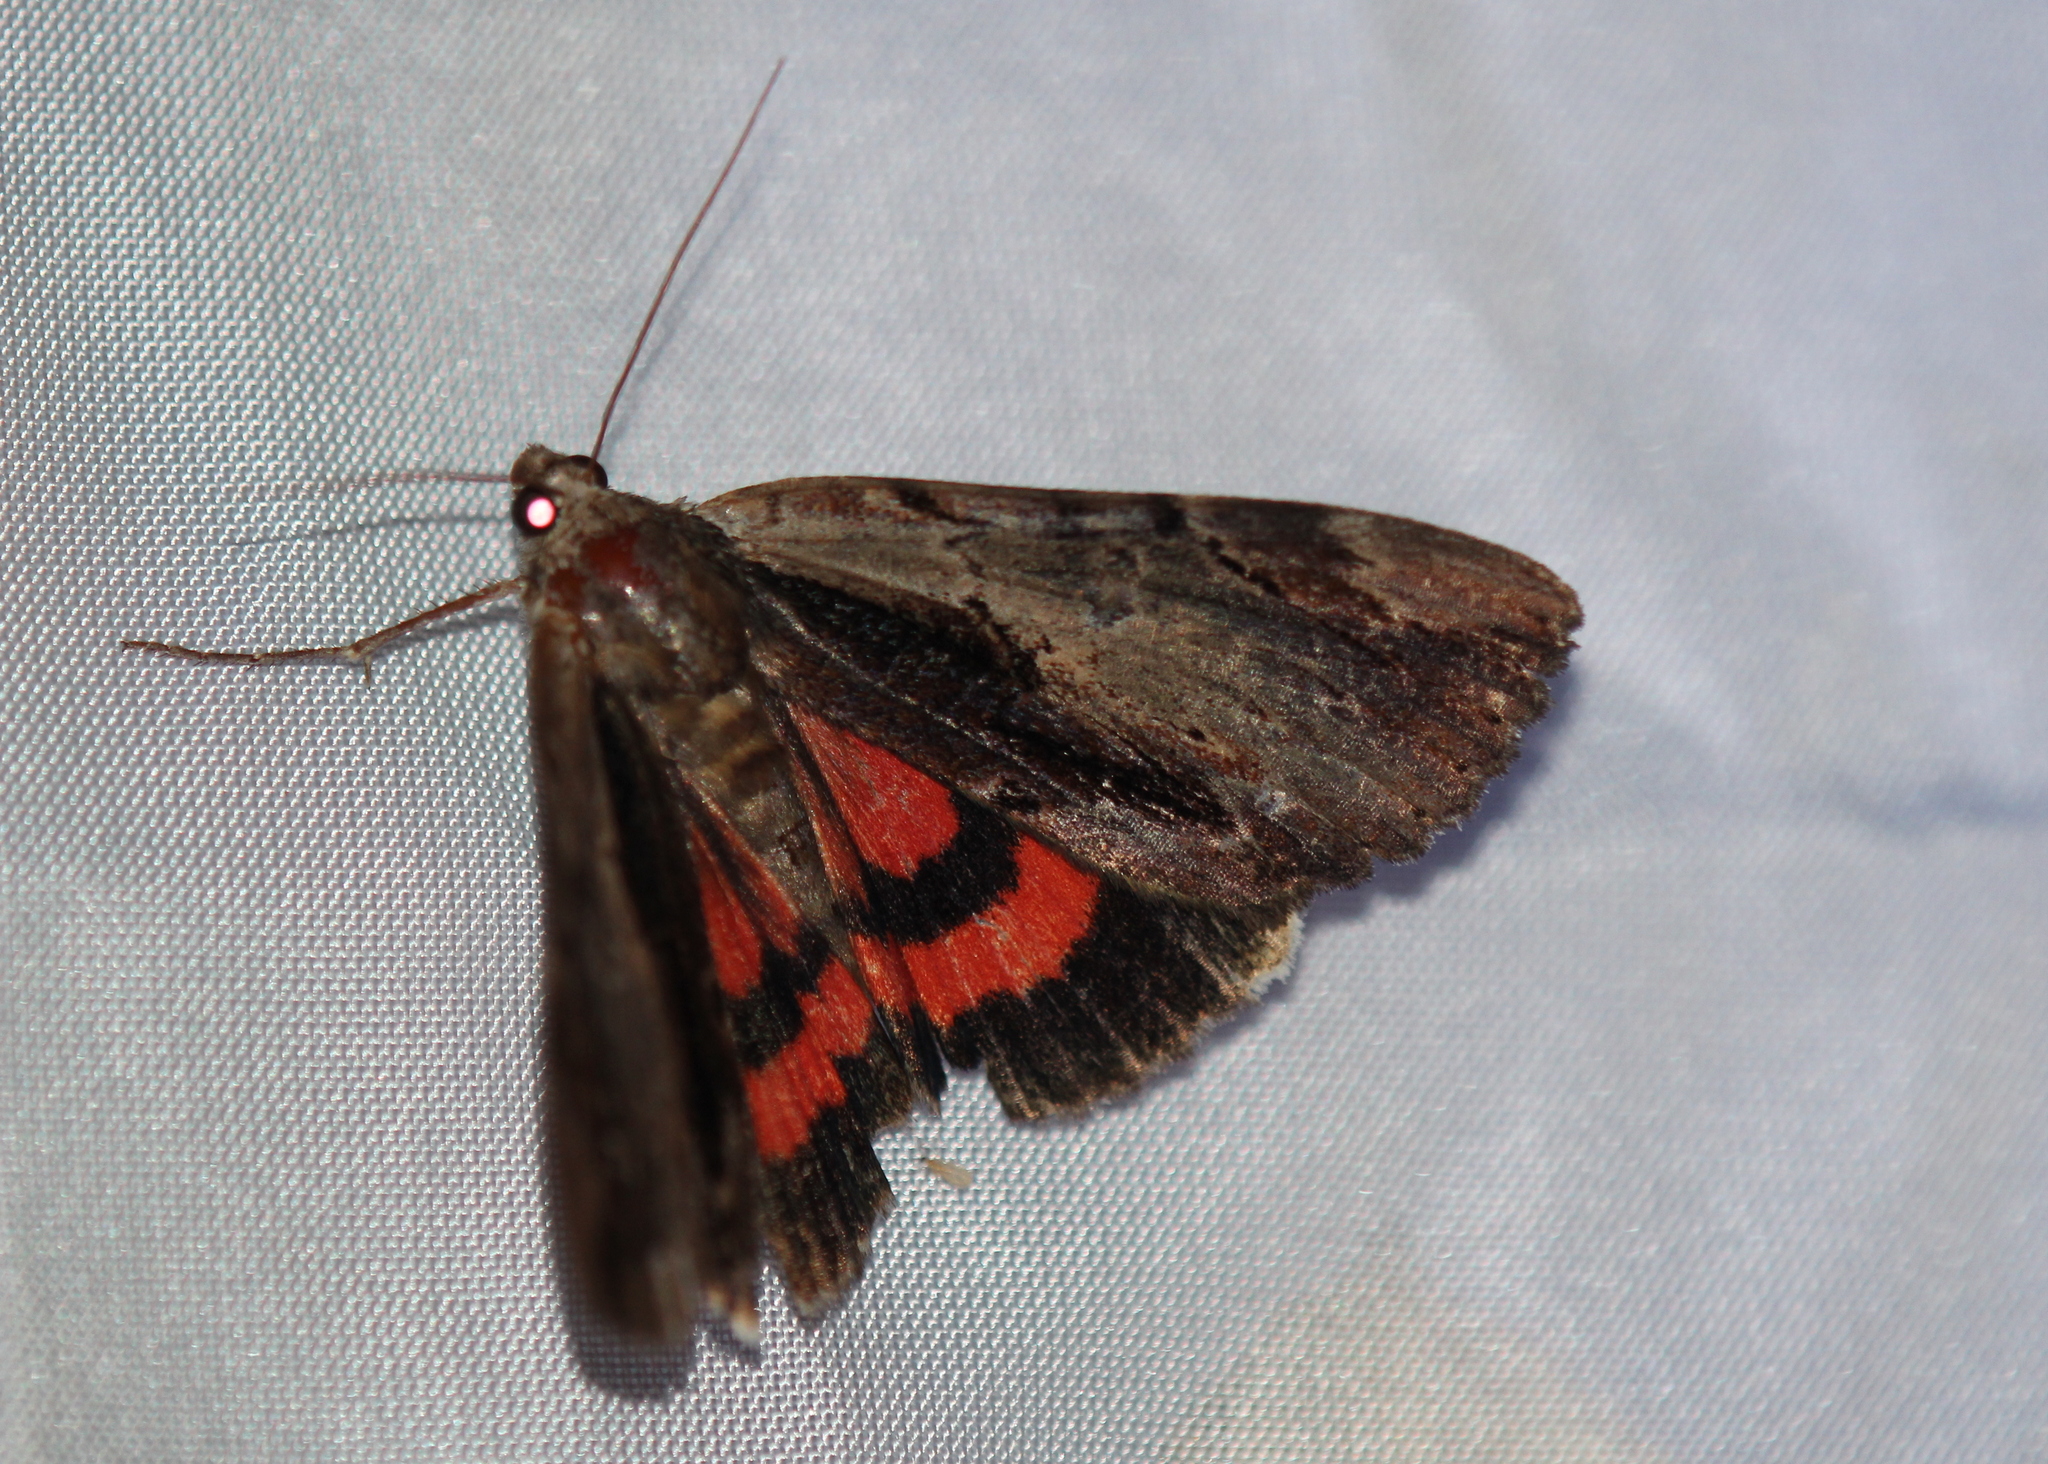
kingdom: Animalia
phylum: Arthropoda
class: Insecta
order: Lepidoptera
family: Erebidae
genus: Catocala
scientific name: Catocala ultronia
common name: Ultronia underwing
